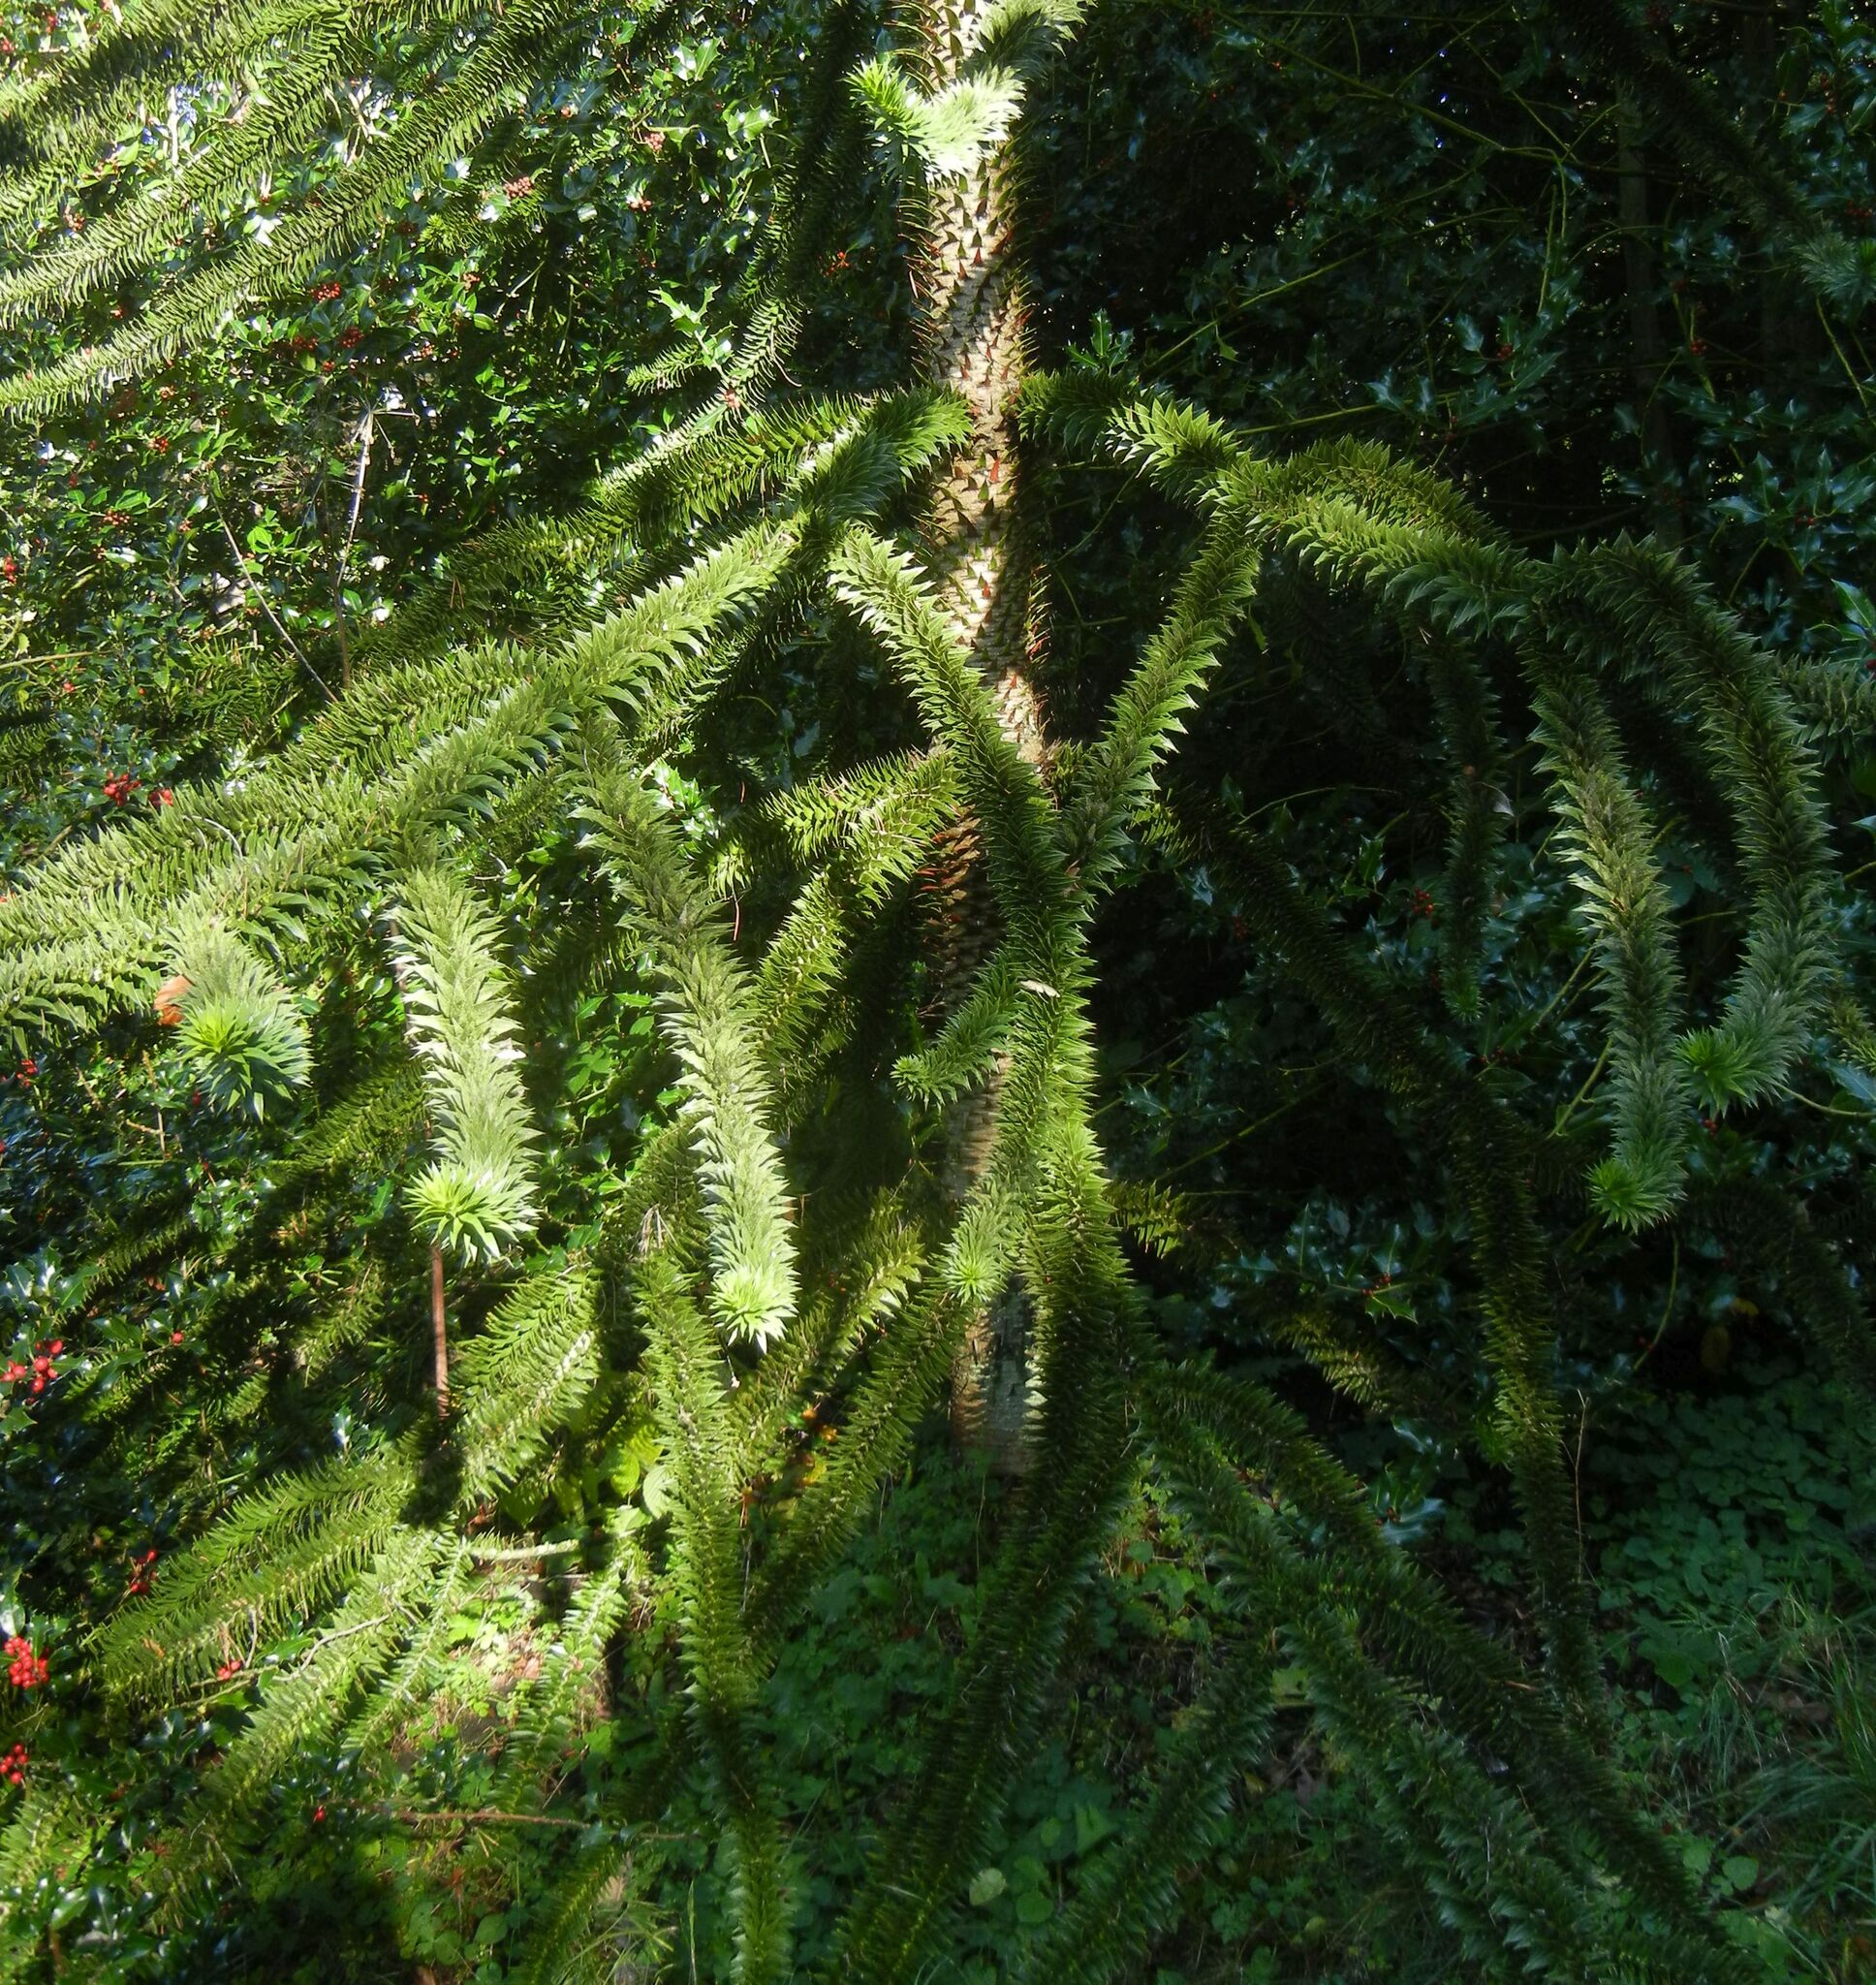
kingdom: Plantae
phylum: Tracheophyta
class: Pinopsida
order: Pinales
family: Araucariaceae
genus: Araucaria
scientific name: Araucaria araucana
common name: Monkey-puzzle
